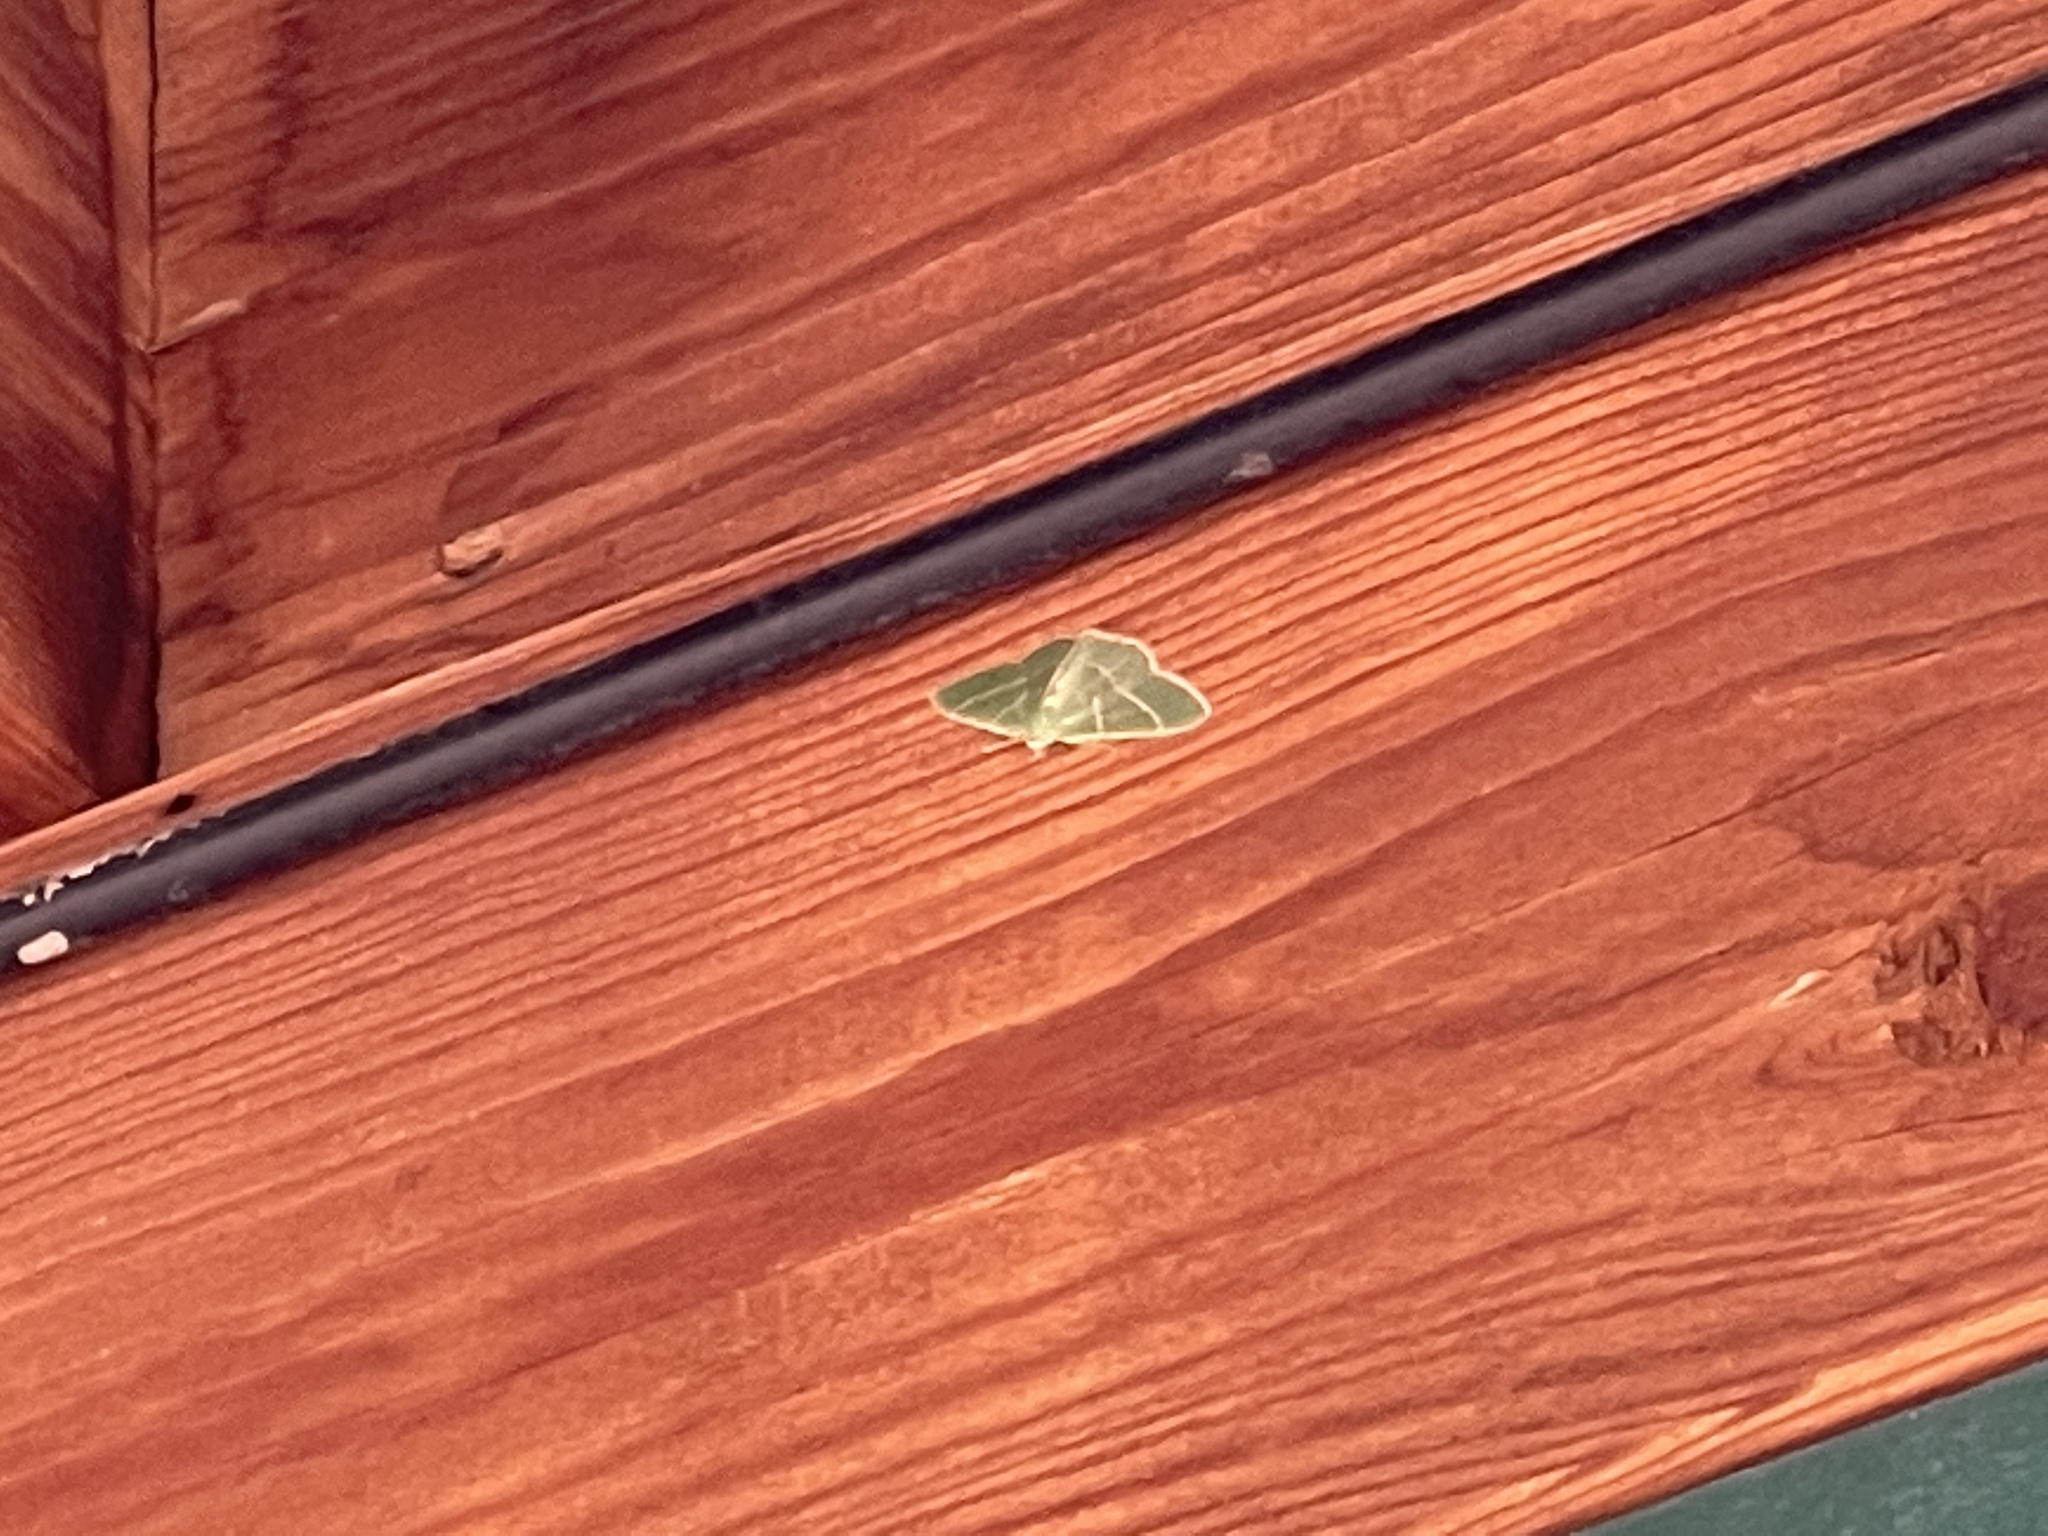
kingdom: Animalia
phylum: Arthropoda
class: Insecta
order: Lepidoptera
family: Geometridae
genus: Nemoria
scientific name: Nemoria obliqua
